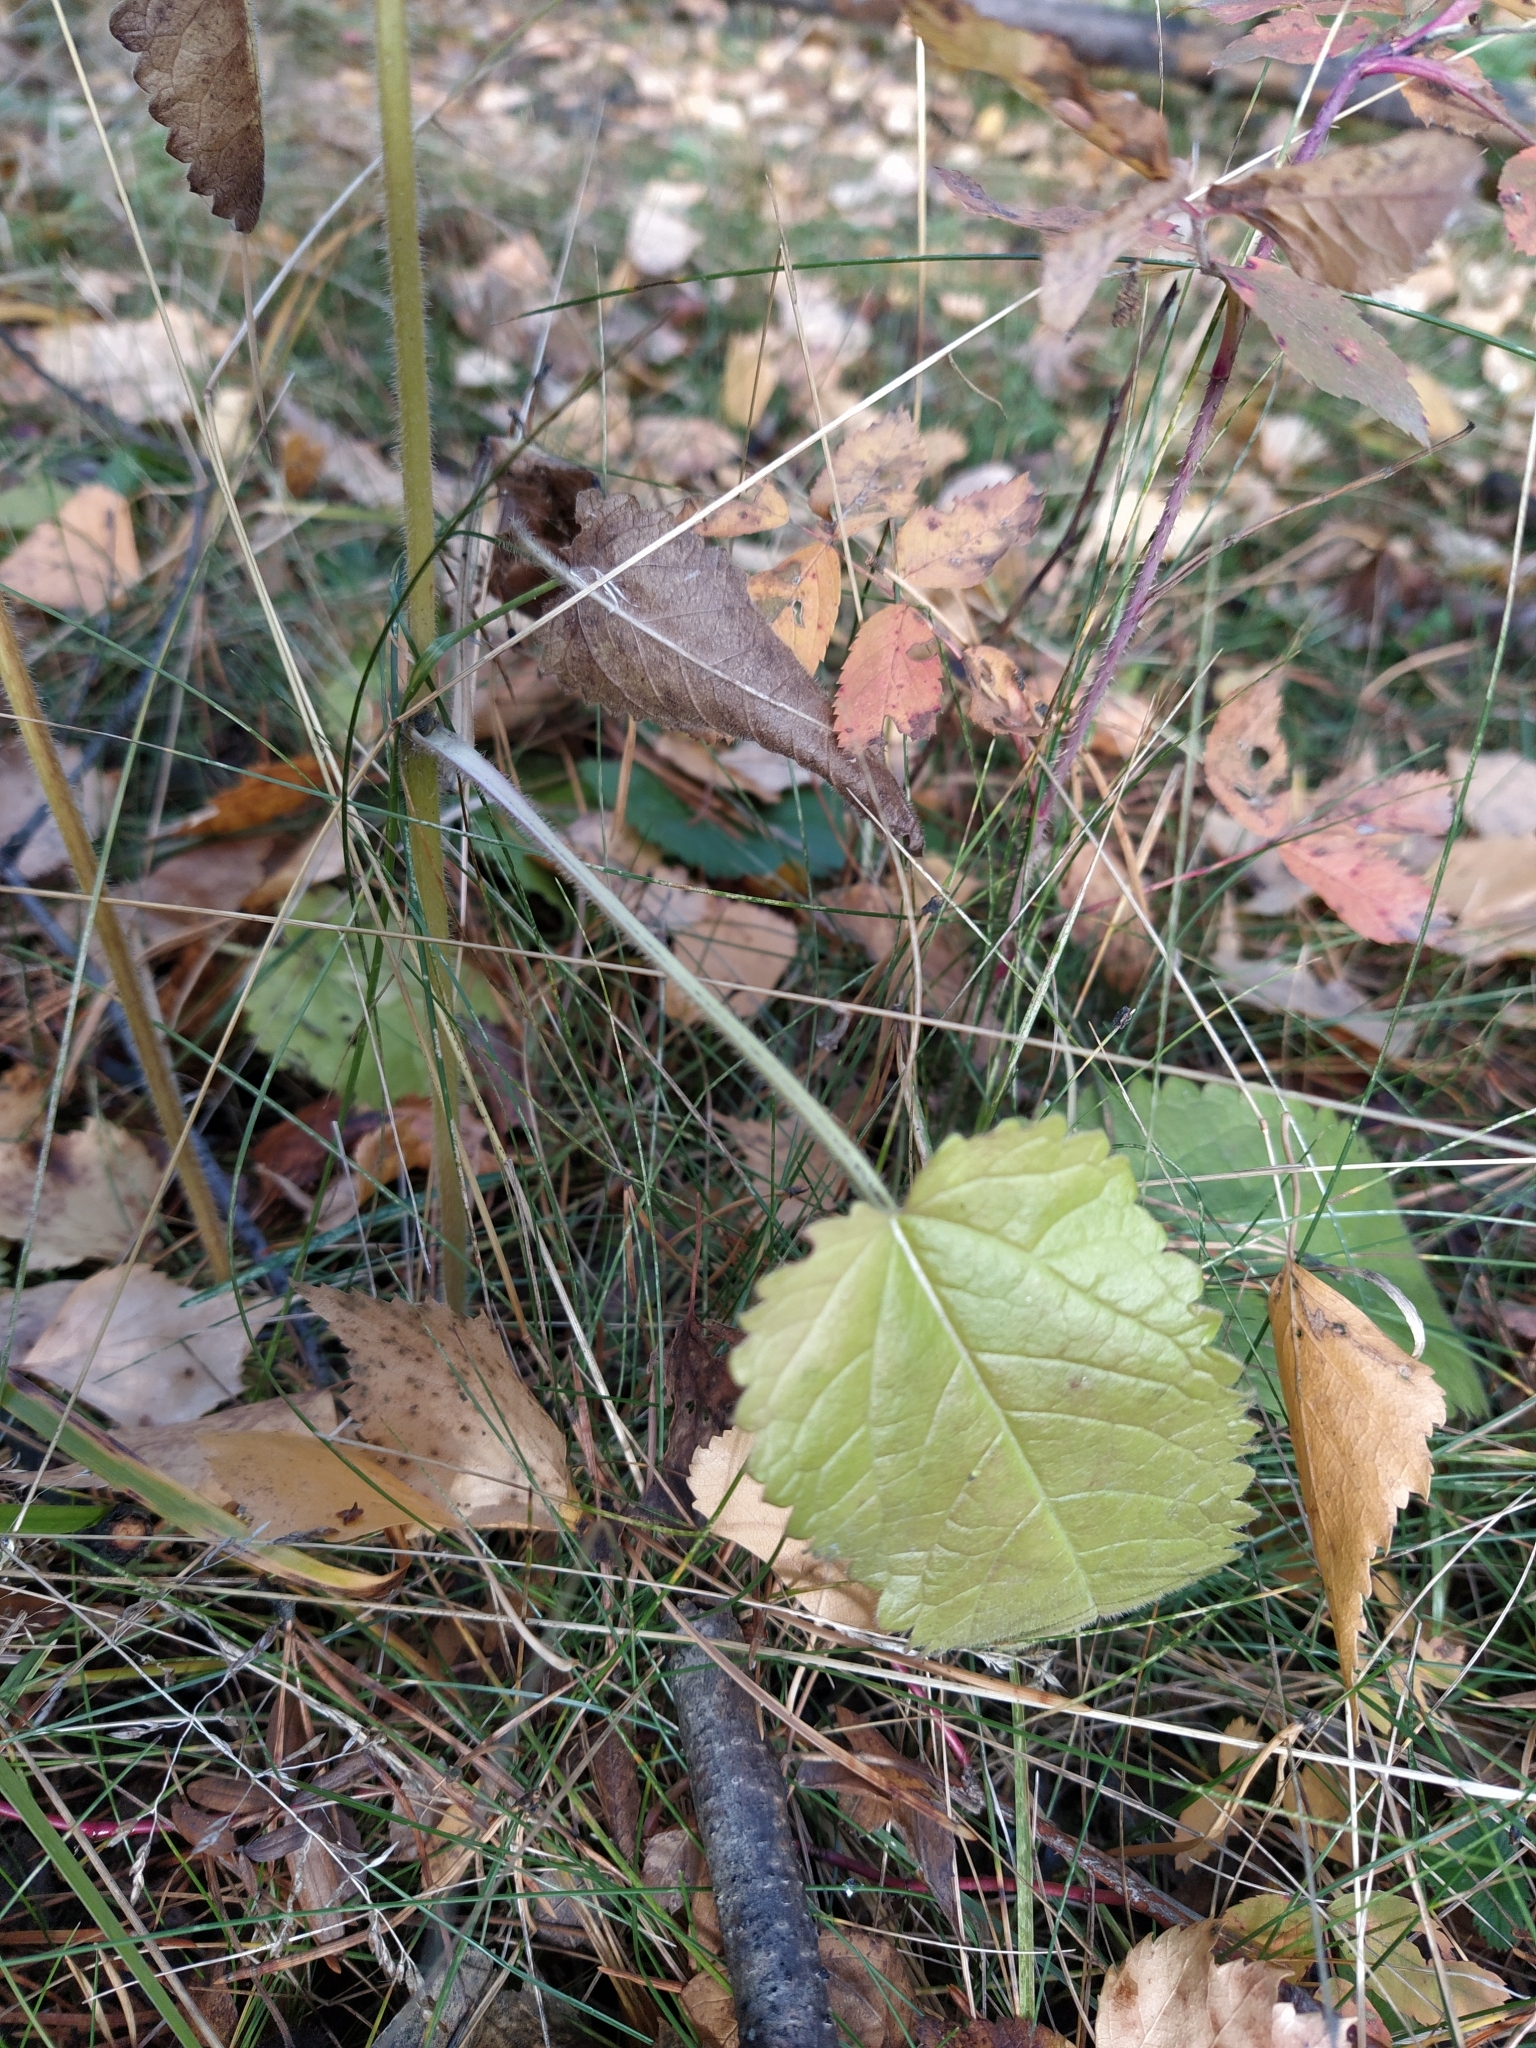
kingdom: Plantae
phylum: Tracheophyta
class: Magnoliopsida
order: Lamiales
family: Lamiaceae
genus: Betonica
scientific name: Betonica officinalis
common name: Bishop's-wort
